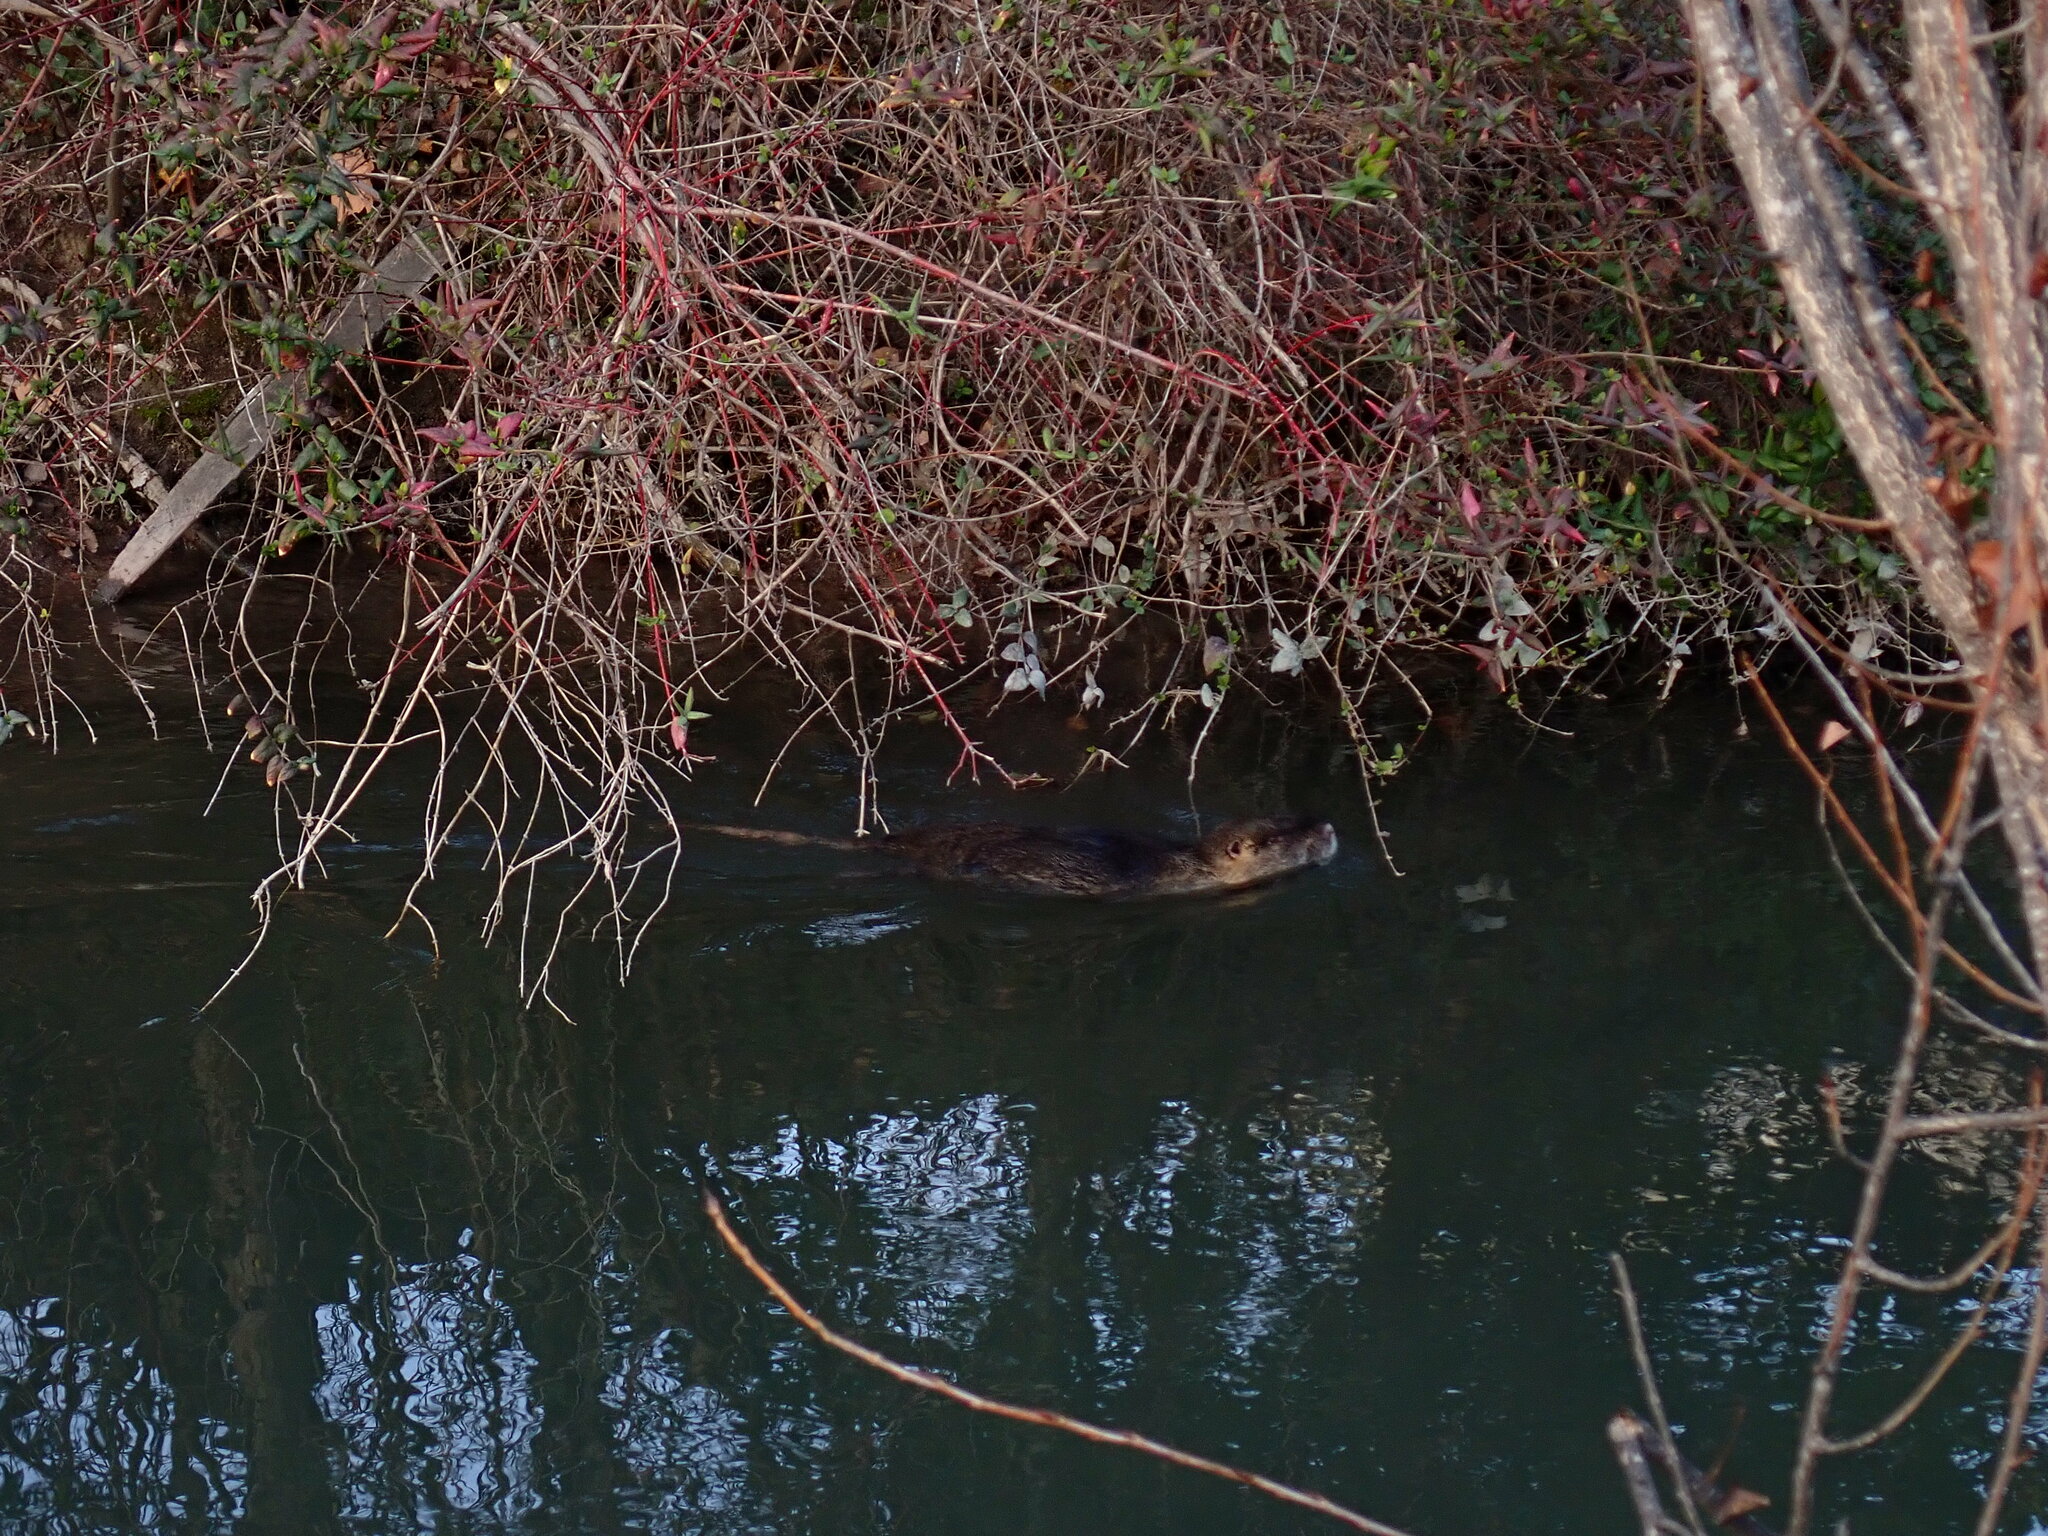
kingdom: Animalia
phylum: Chordata
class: Mammalia
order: Rodentia
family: Myocastoridae
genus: Myocastor
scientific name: Myocastor coypus
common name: Coypu
